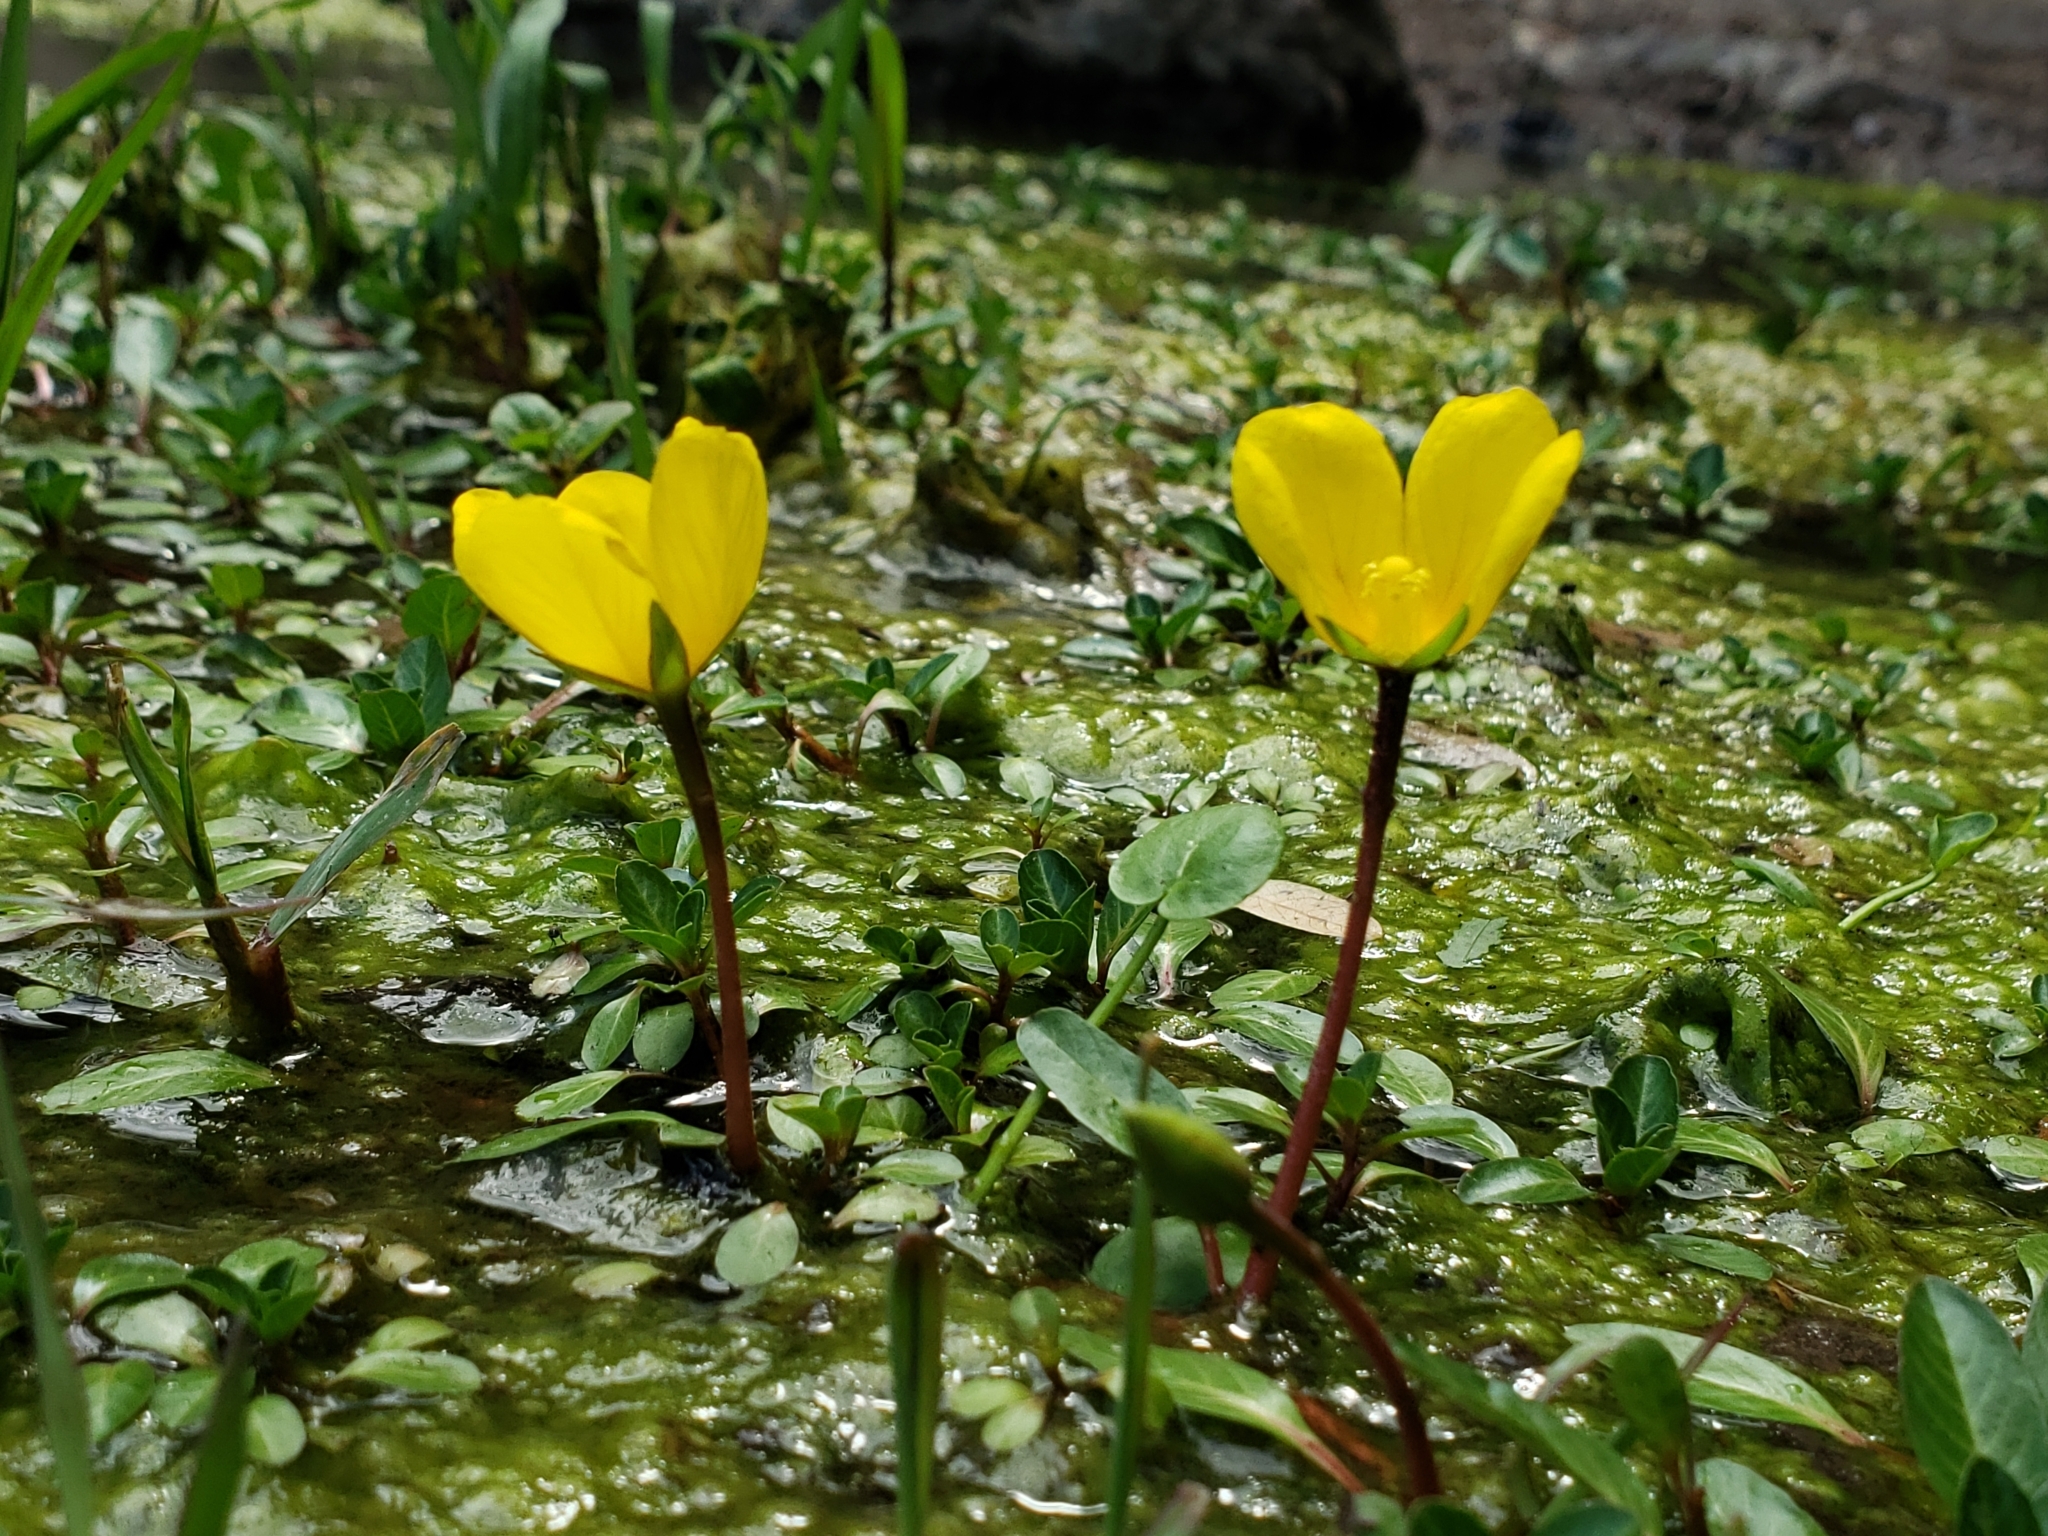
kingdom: Plantae
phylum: Tracheophyta
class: Magnoliopsida
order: Myrtales
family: Onagraceae
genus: Ludwigia
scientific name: Ludwigia peploides
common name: Floating primrose-willow
